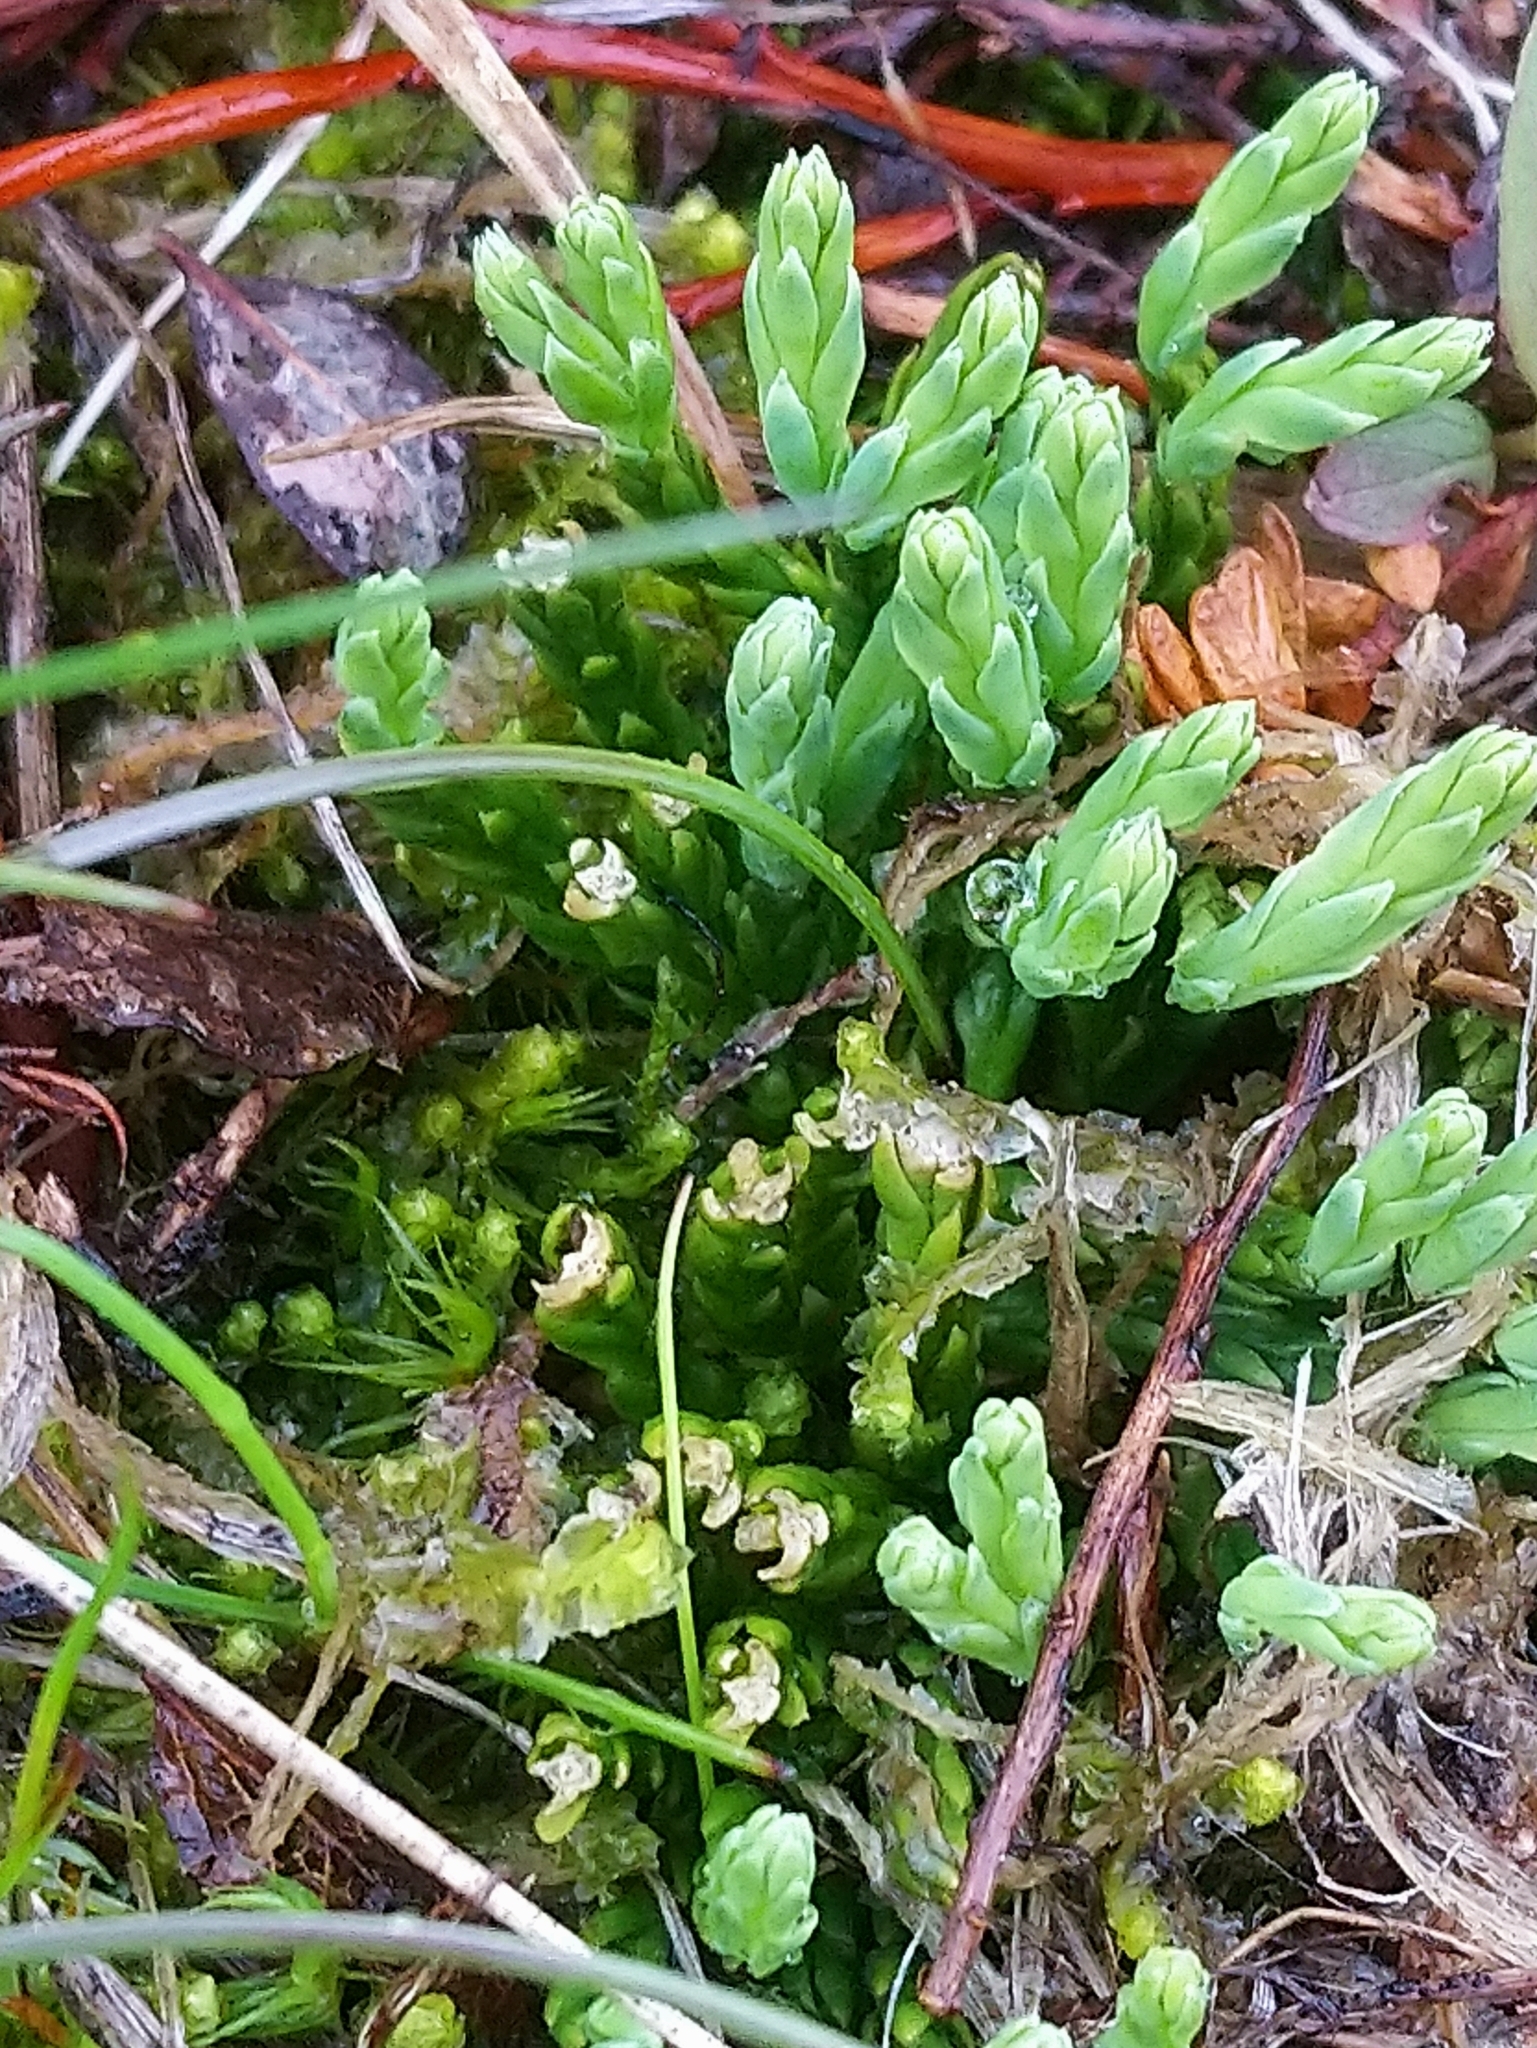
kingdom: Plantae
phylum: Tracheophyta
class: Lycopodiopsida
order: Lycopodiales
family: Lycopodiaceae
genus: Diphasiastrum
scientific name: Diphasiastrum alpinum
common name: Alpine clubmoss
